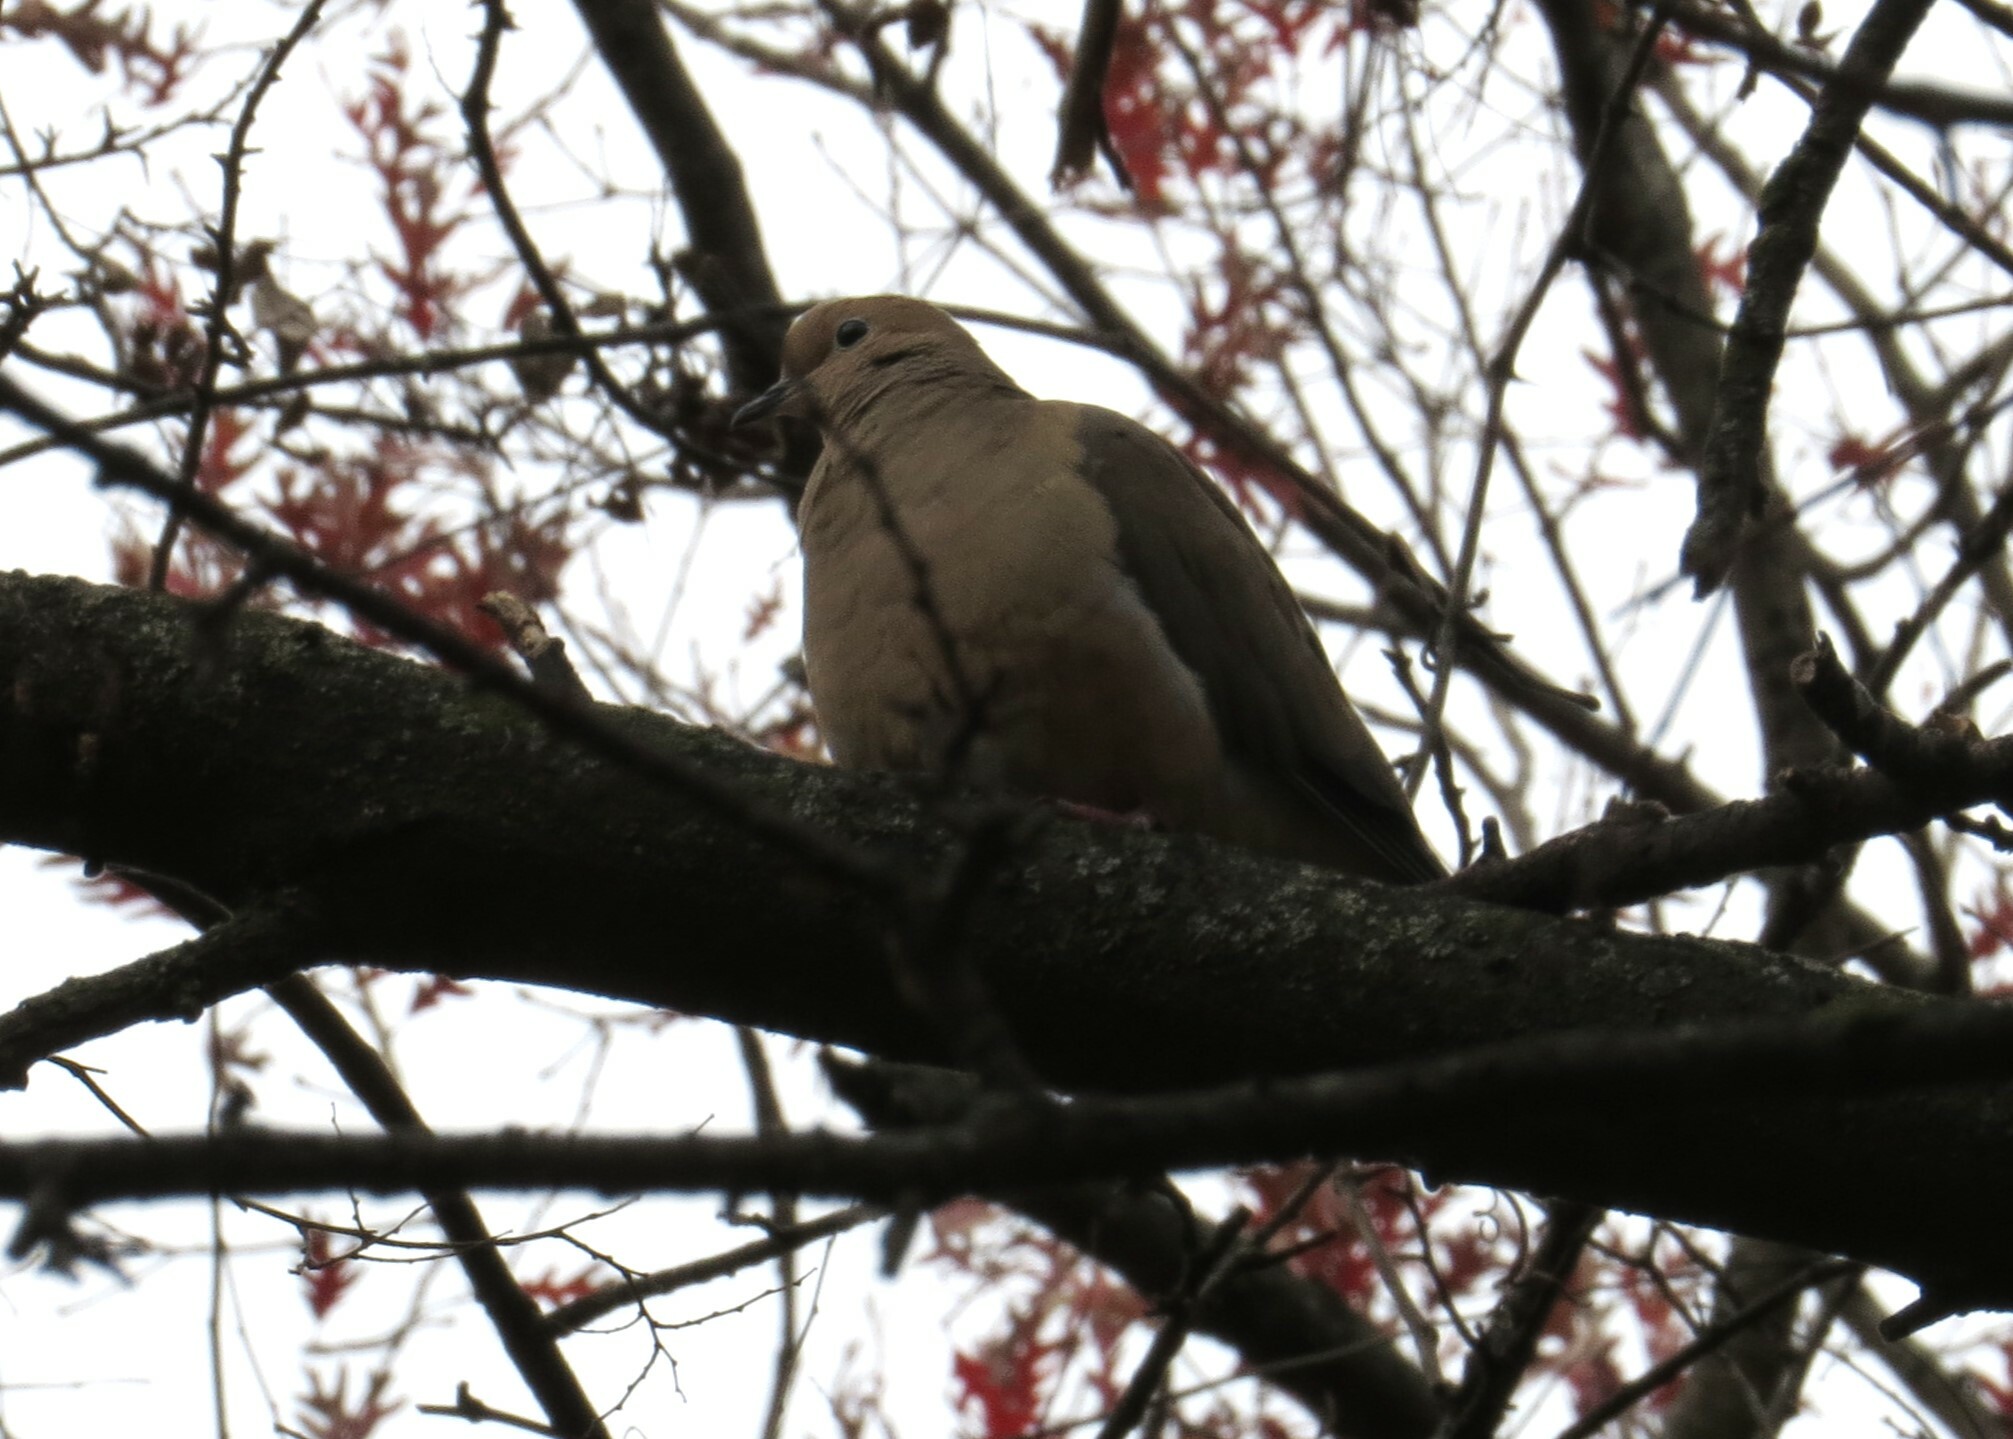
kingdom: Animalia
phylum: Chordata
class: Aves
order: Columbiformes
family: Columbidae
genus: Zenaida
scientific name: Zenaida macroura
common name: Mourning dove
